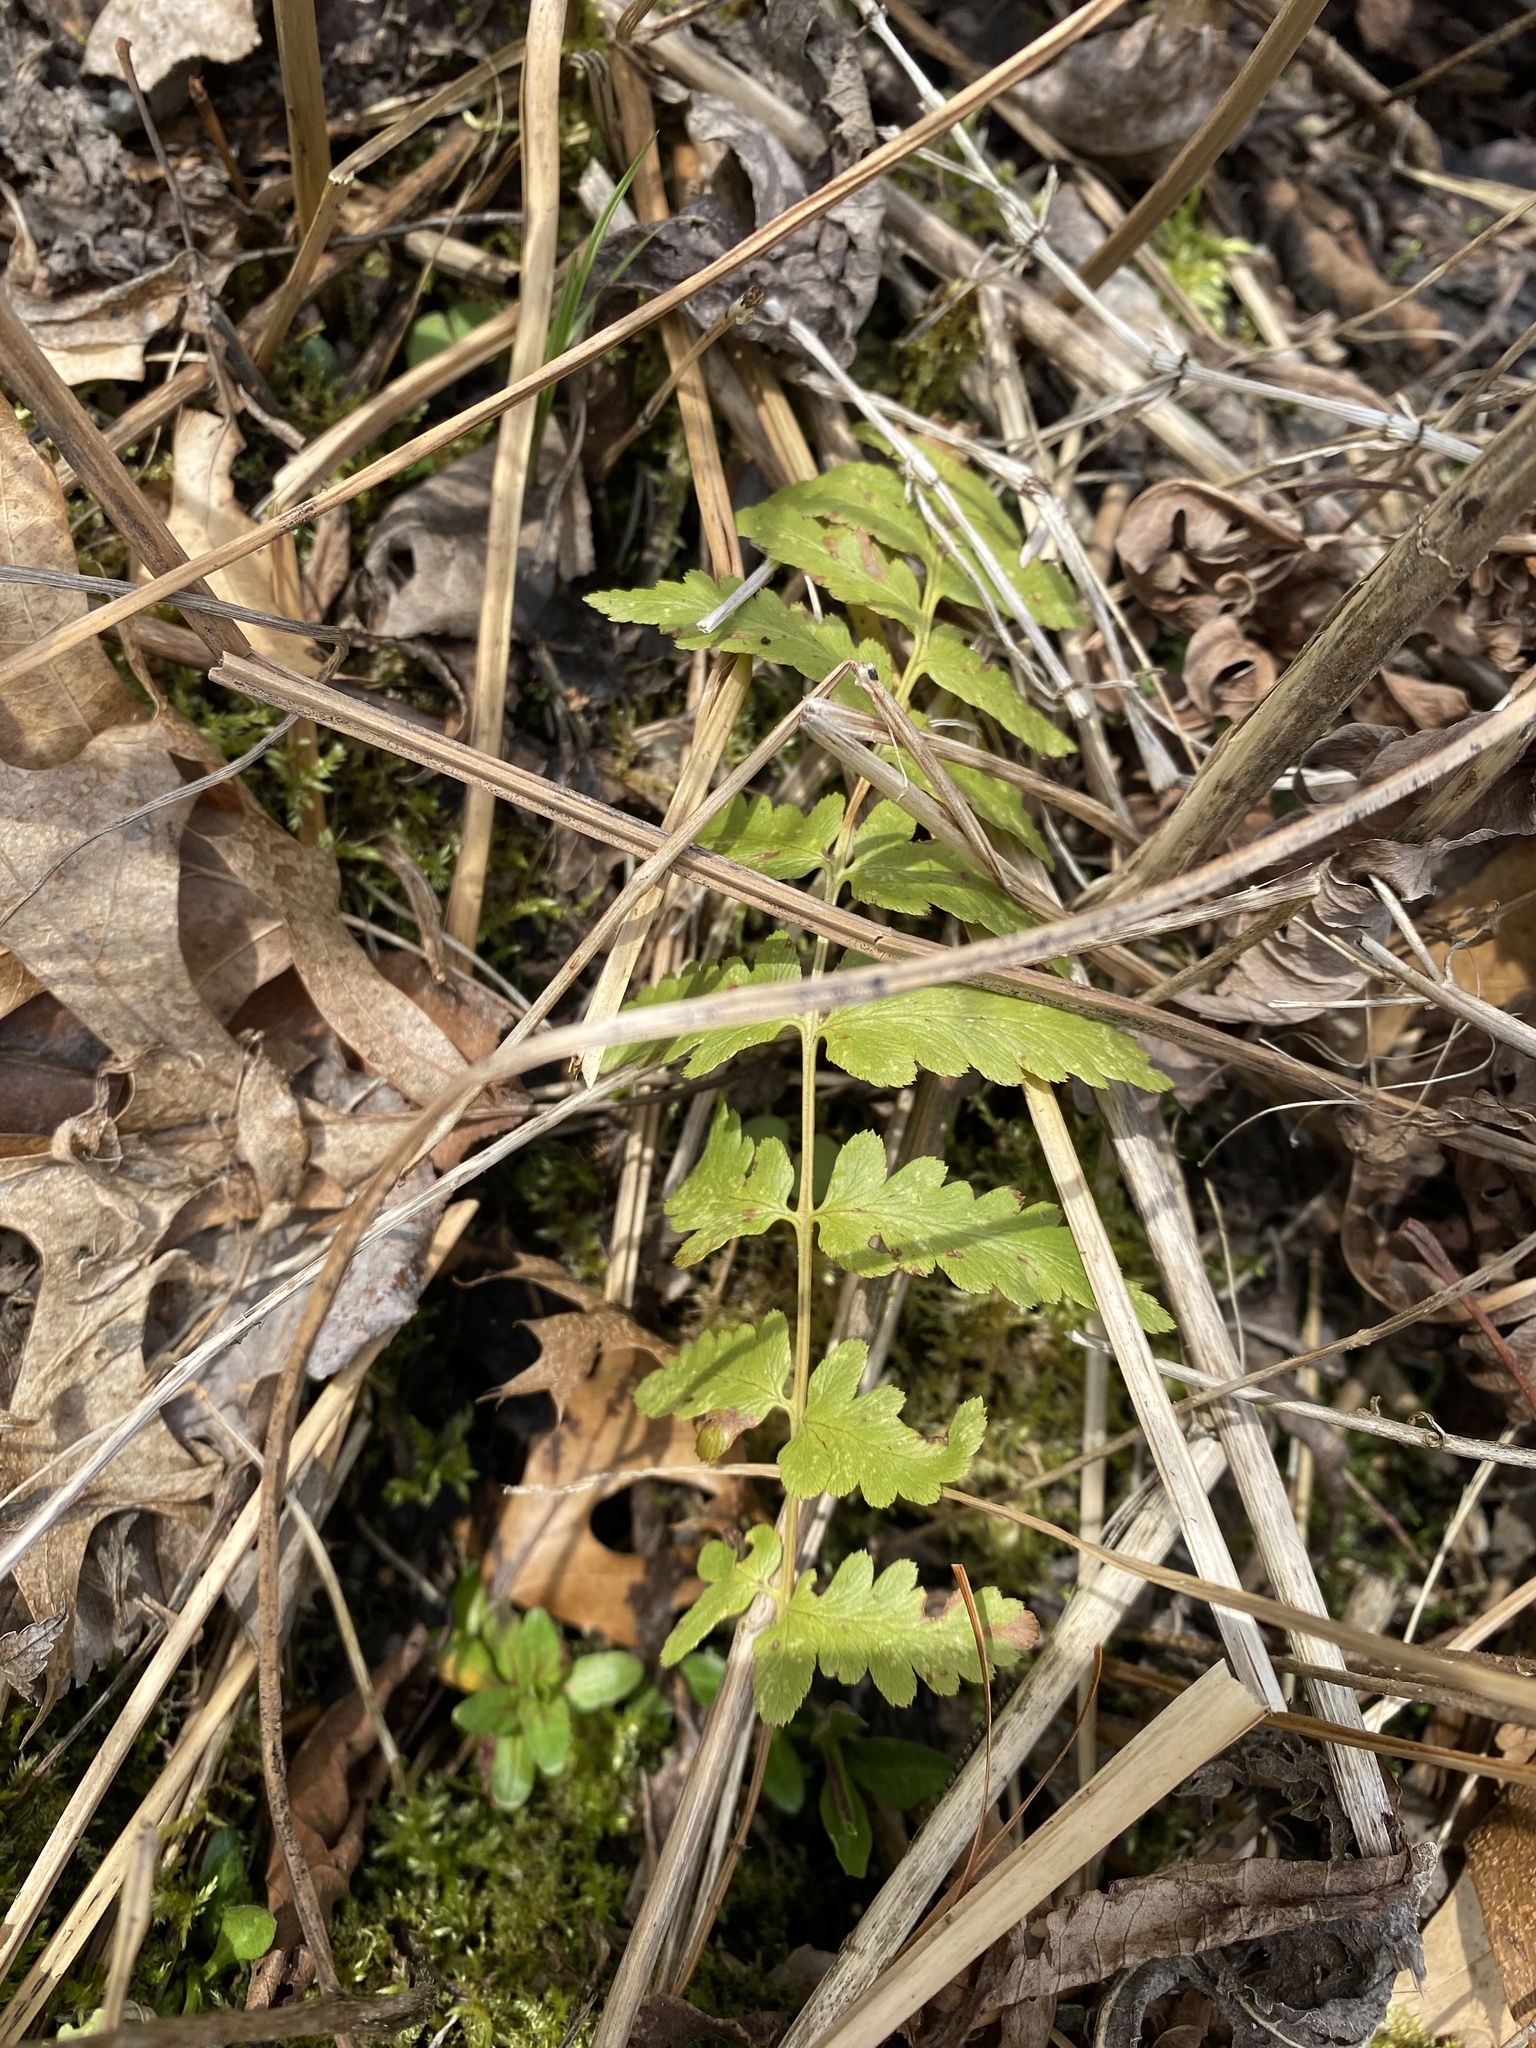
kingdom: Plantae
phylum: Tracheophyta
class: Polypodiopsida
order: Polypodiales
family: Dryopteridaceae
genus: Dryopteris
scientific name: Dryopteris cristata
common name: Crested wood fern
